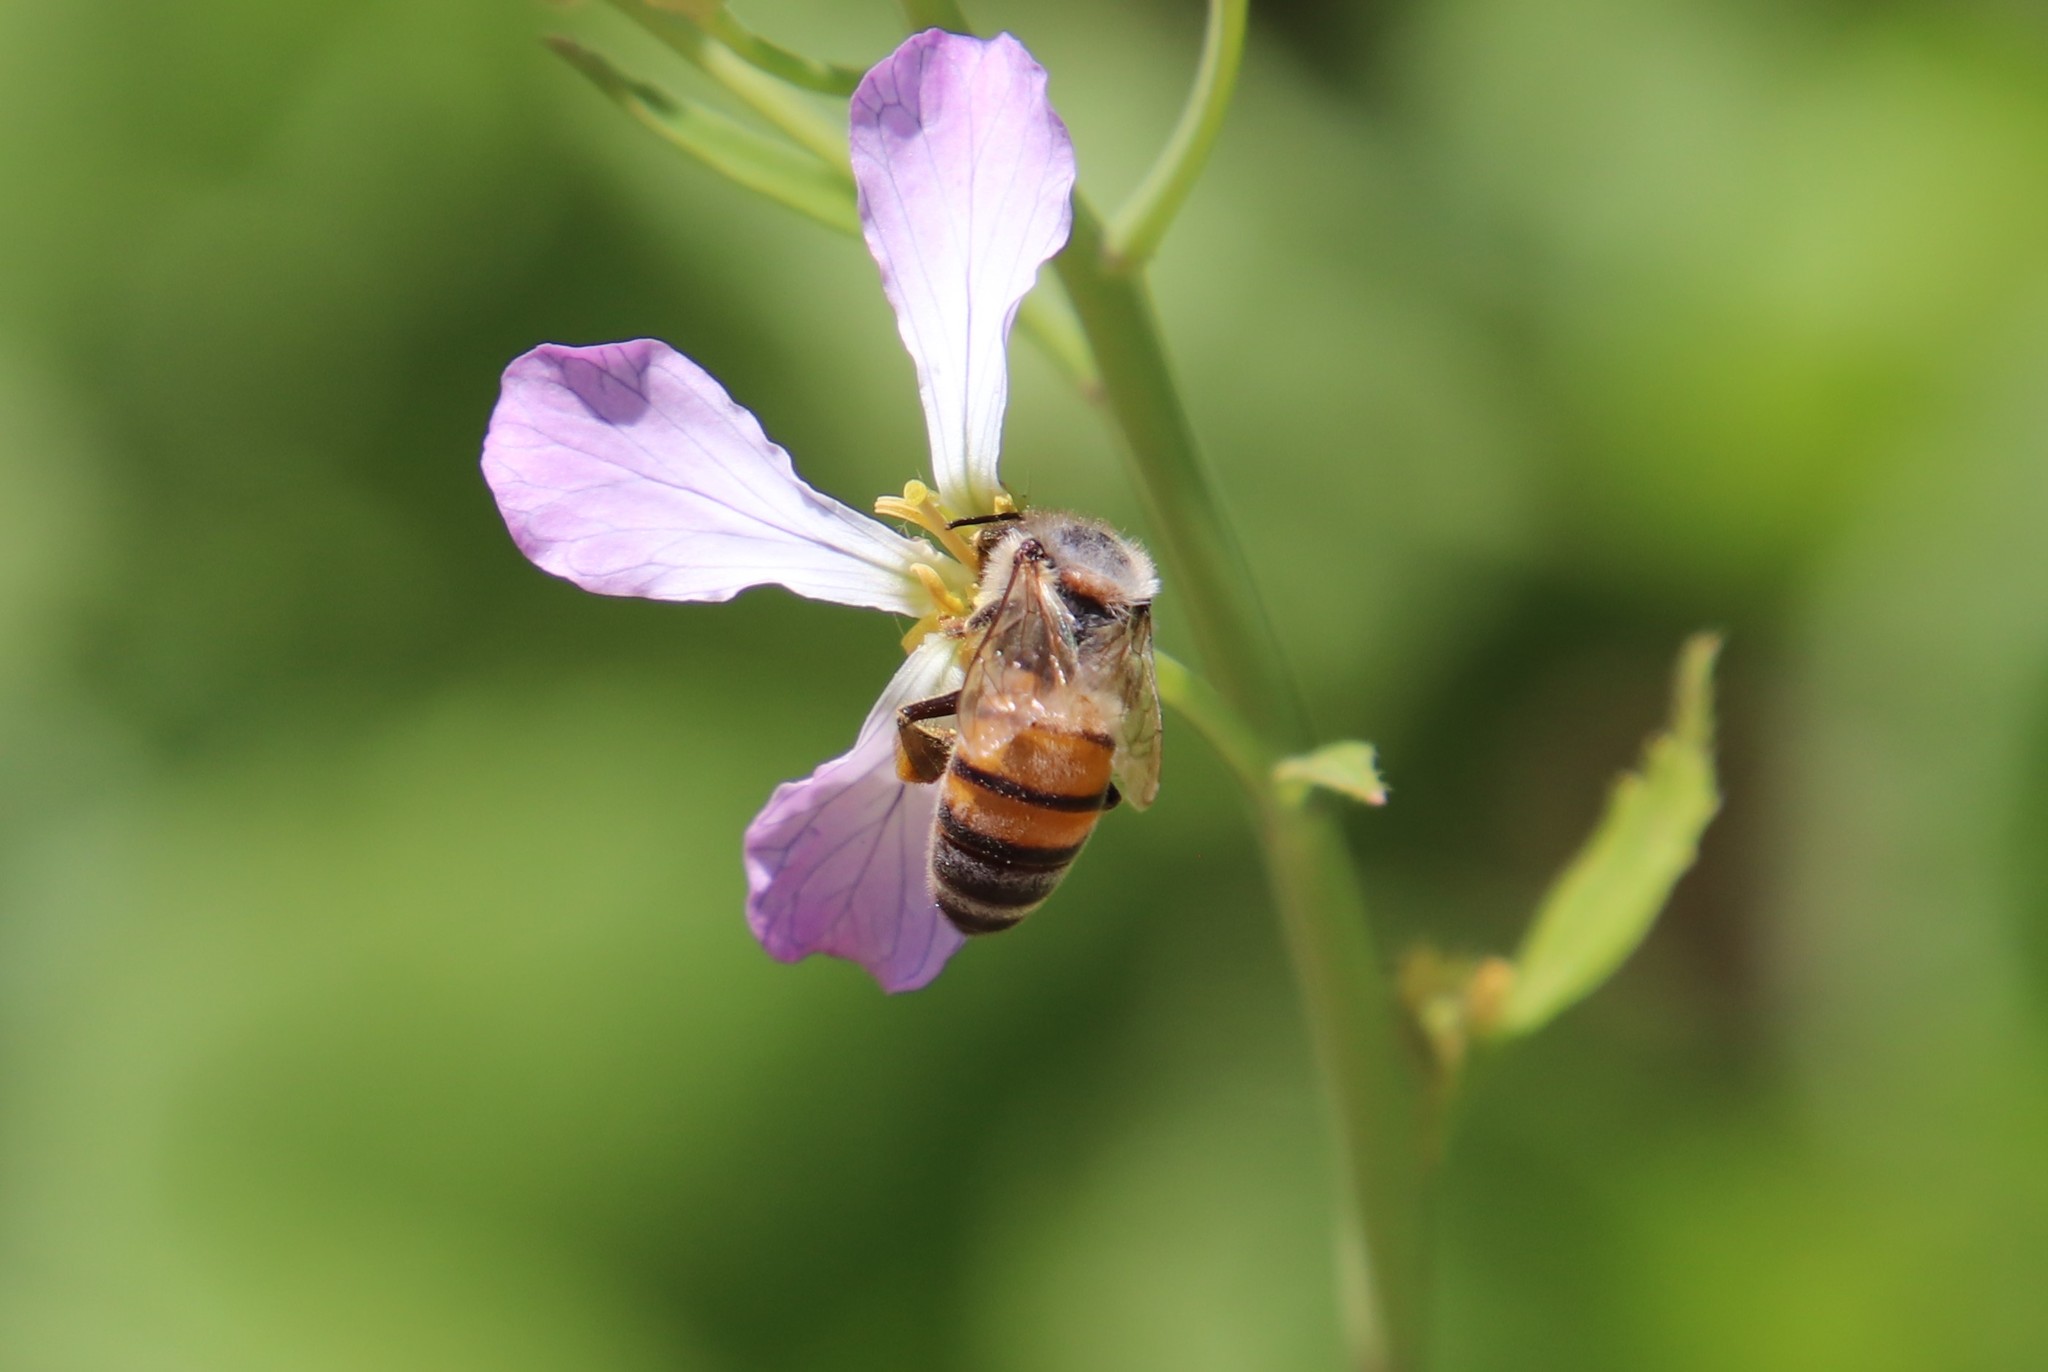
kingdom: Animalia
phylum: Arthropoda
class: Insecta
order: Hymenoptera
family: Apidae
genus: Apis
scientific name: Apis mellifera
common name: Honey bee
